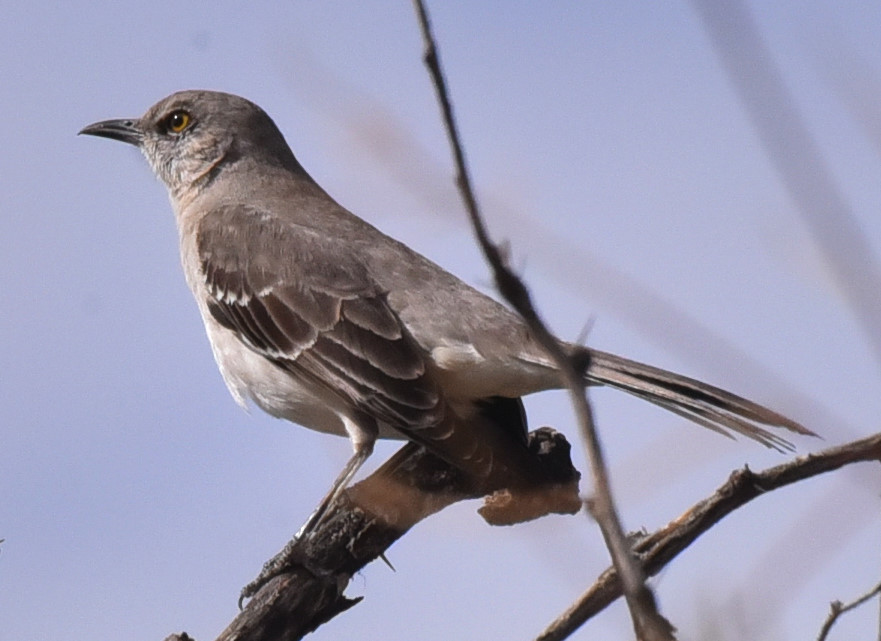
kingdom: Animalia
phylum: Chordata
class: Aves
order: Passeriformes
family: Mimidae
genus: Mimus
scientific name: Mimus polyglottos
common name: Northern mockingbird
